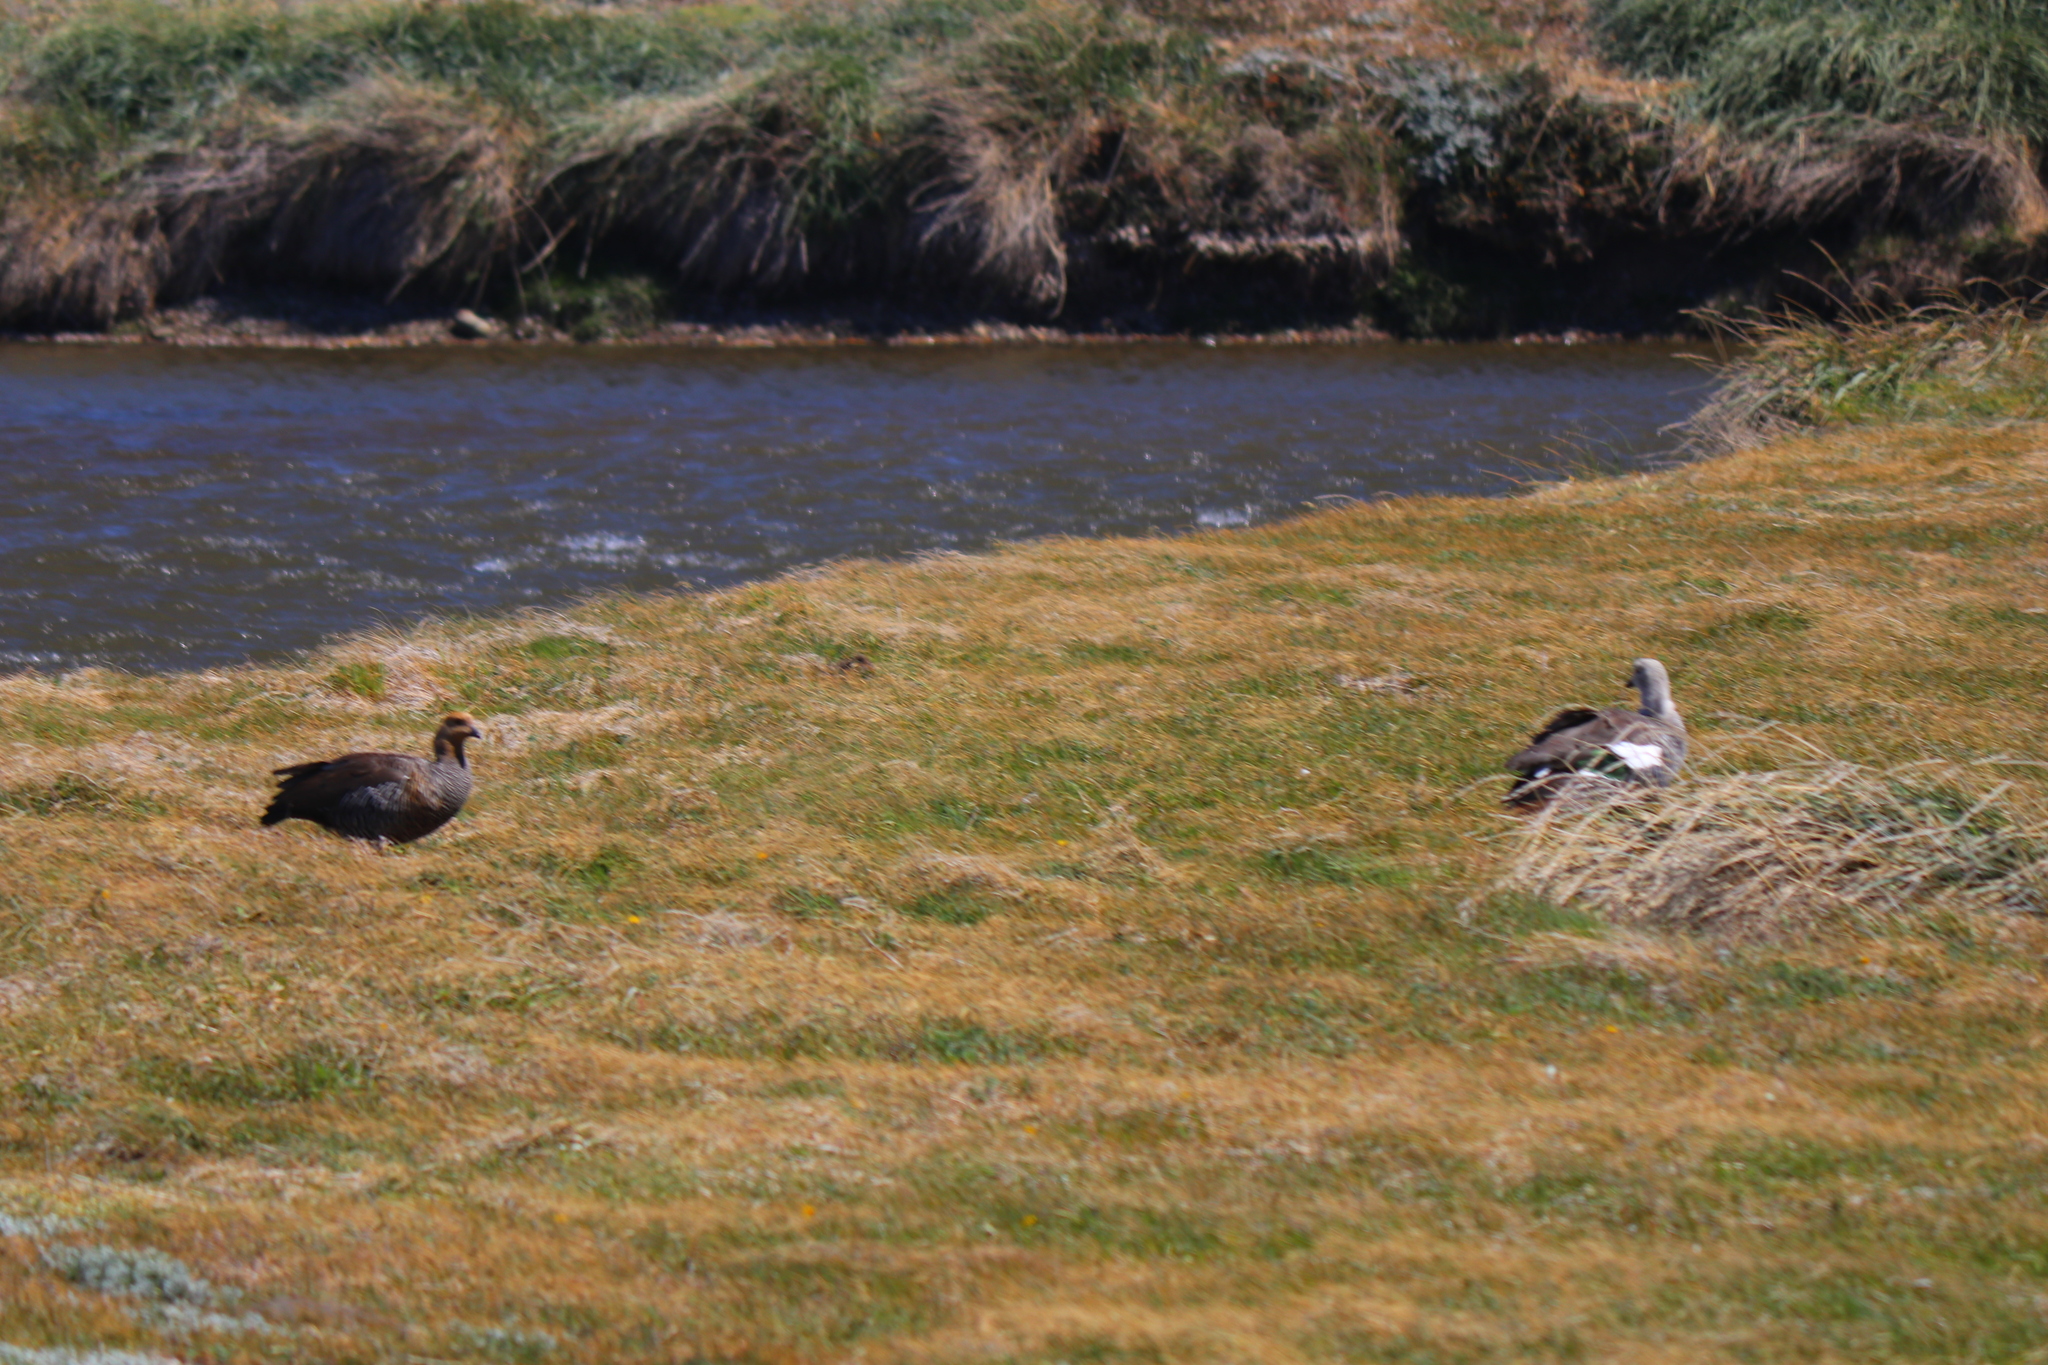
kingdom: Animalia
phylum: Chordata
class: Aves
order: Anseriformes
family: Anatidae
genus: Chloephaga
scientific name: Chloephaga picta
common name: Upland goose
